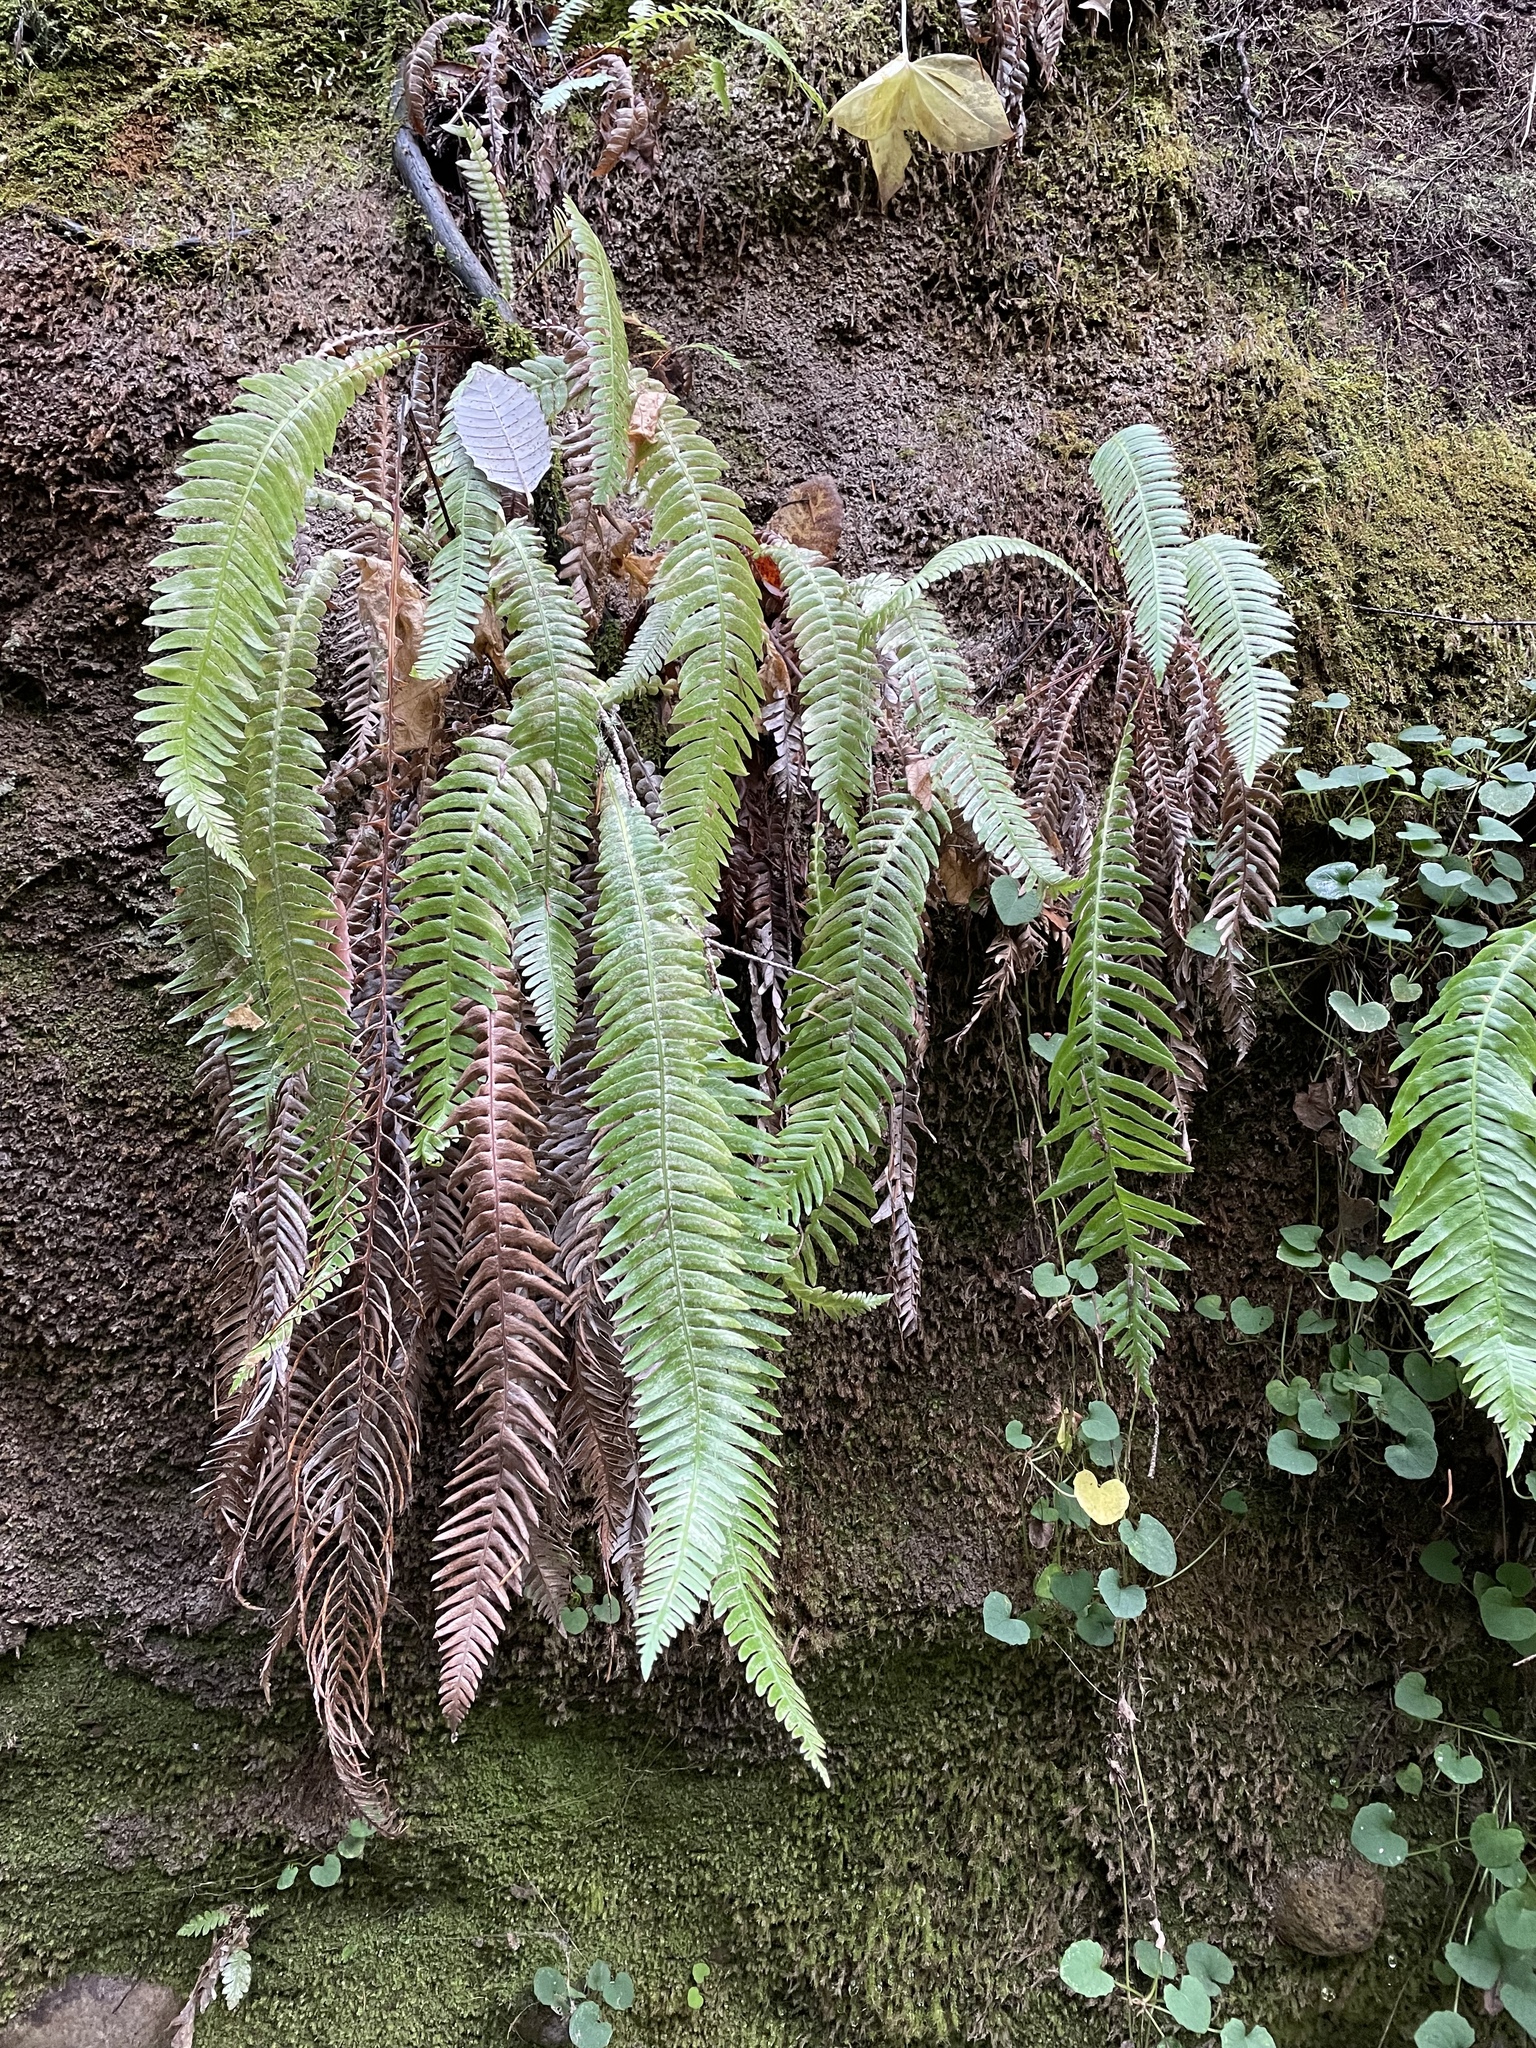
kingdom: Plantae
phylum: Tracheophyta
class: Polypodiopsida
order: Polypodiales
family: Blechnaceae
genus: Struthiopteris
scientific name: Struthiopteris spicant
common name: Deer fern
